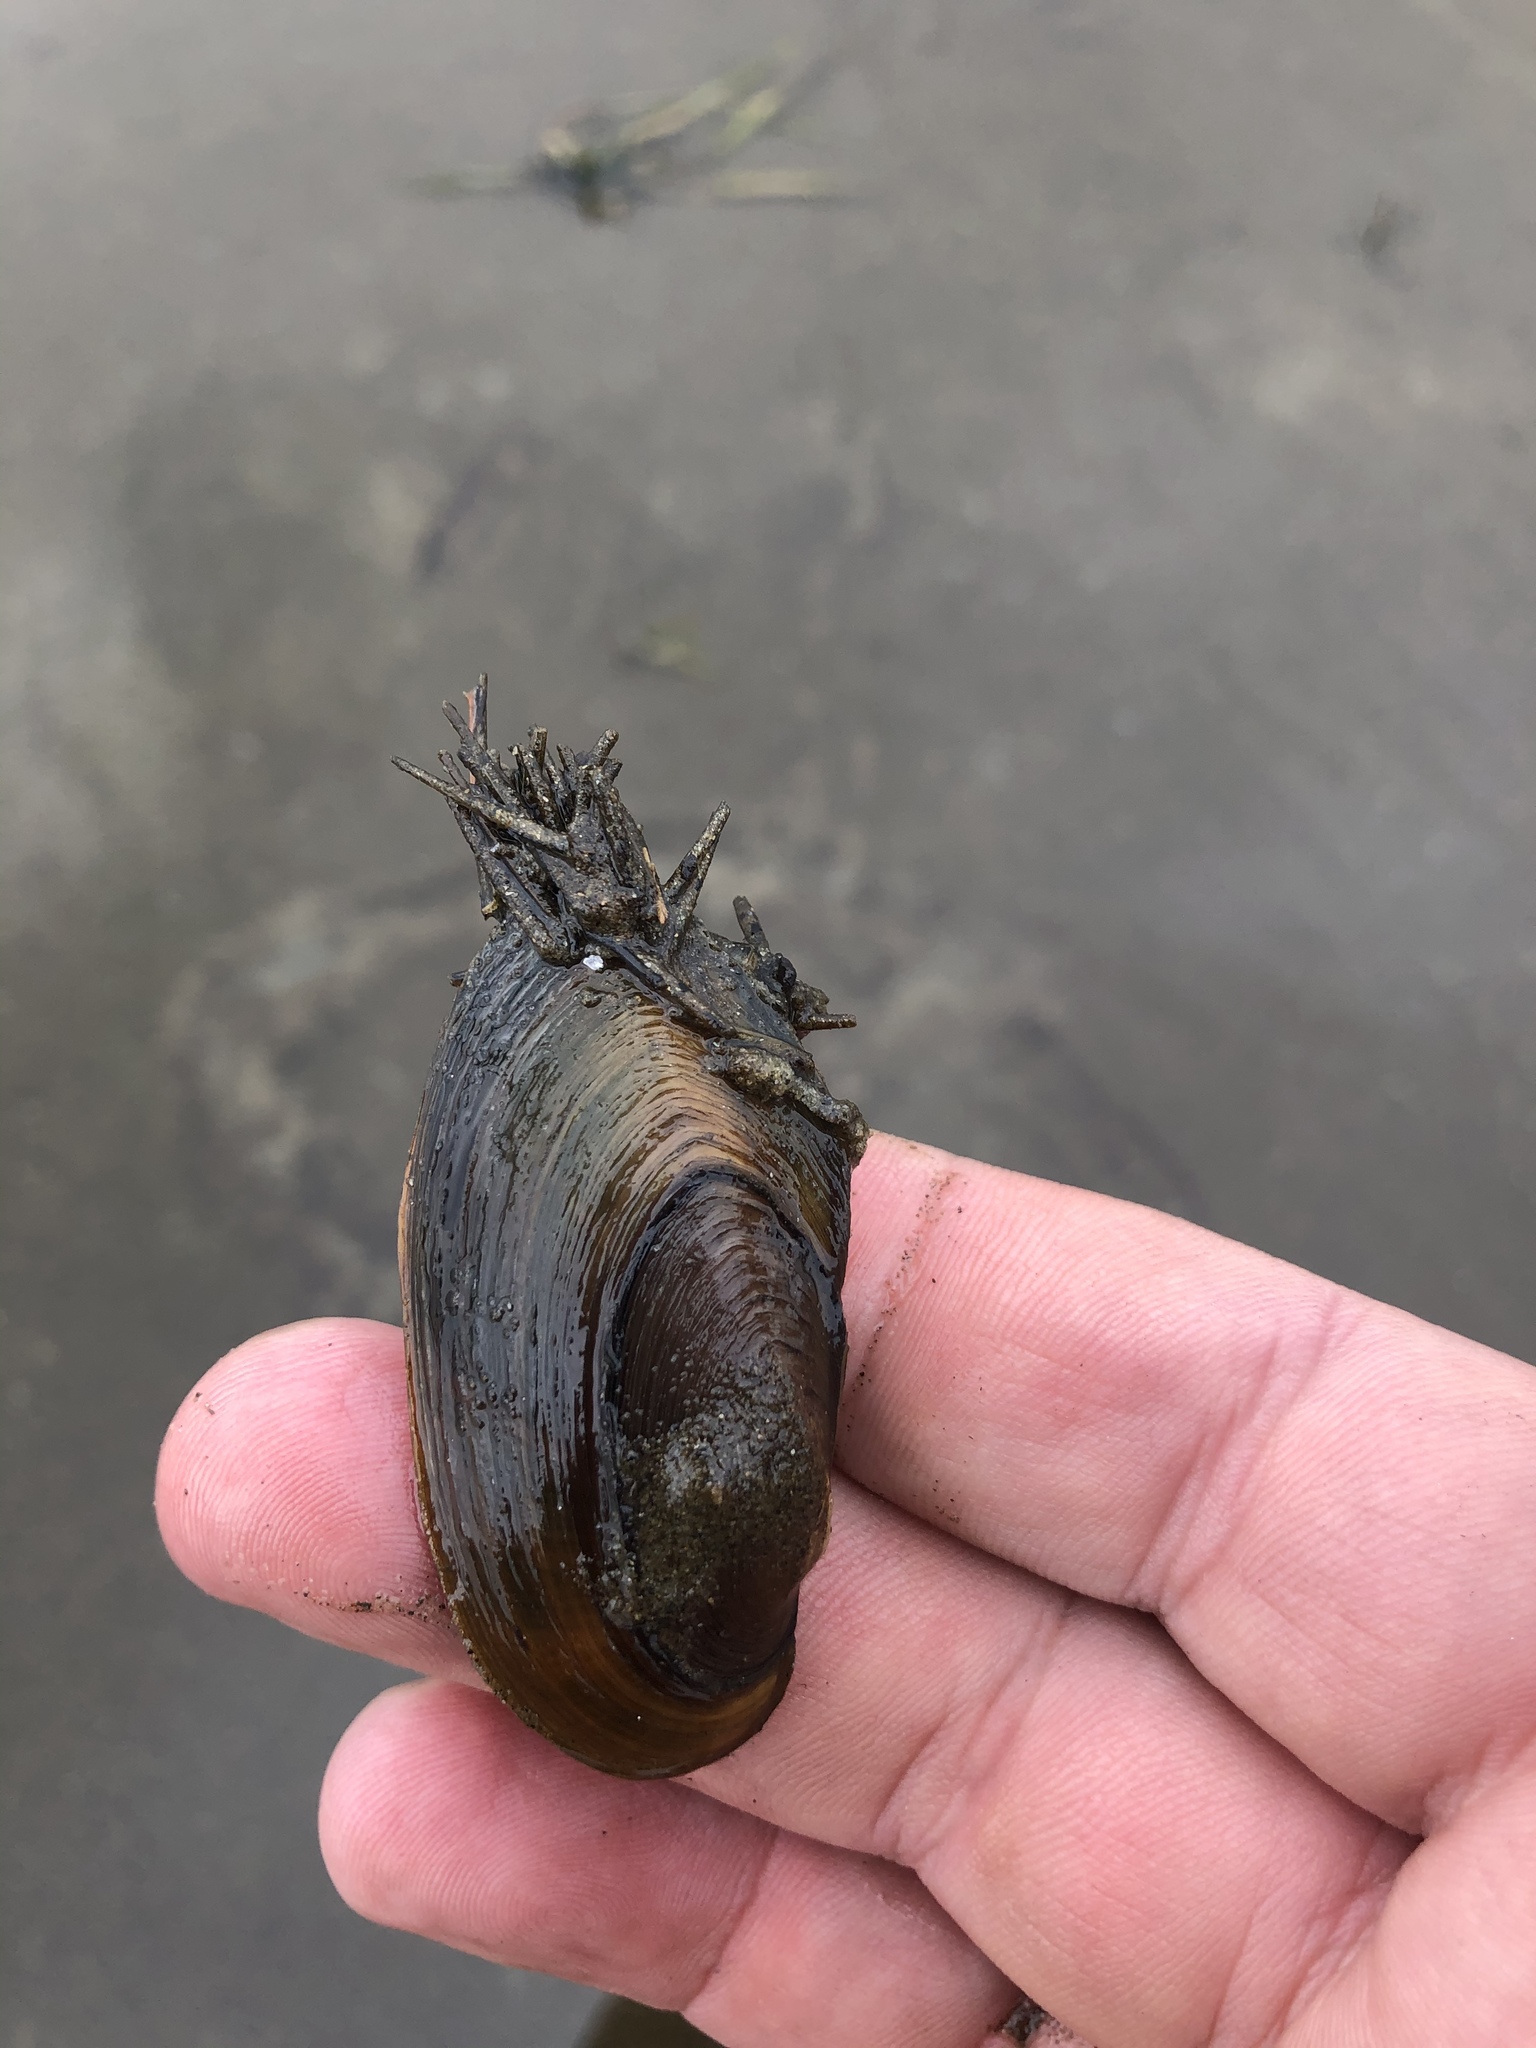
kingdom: Animalia
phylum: Mollusca
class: Bivalvia
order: Unionida
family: Unionidae
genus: Elliptio
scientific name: Elliptio complanata
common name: Eastern elliptio
